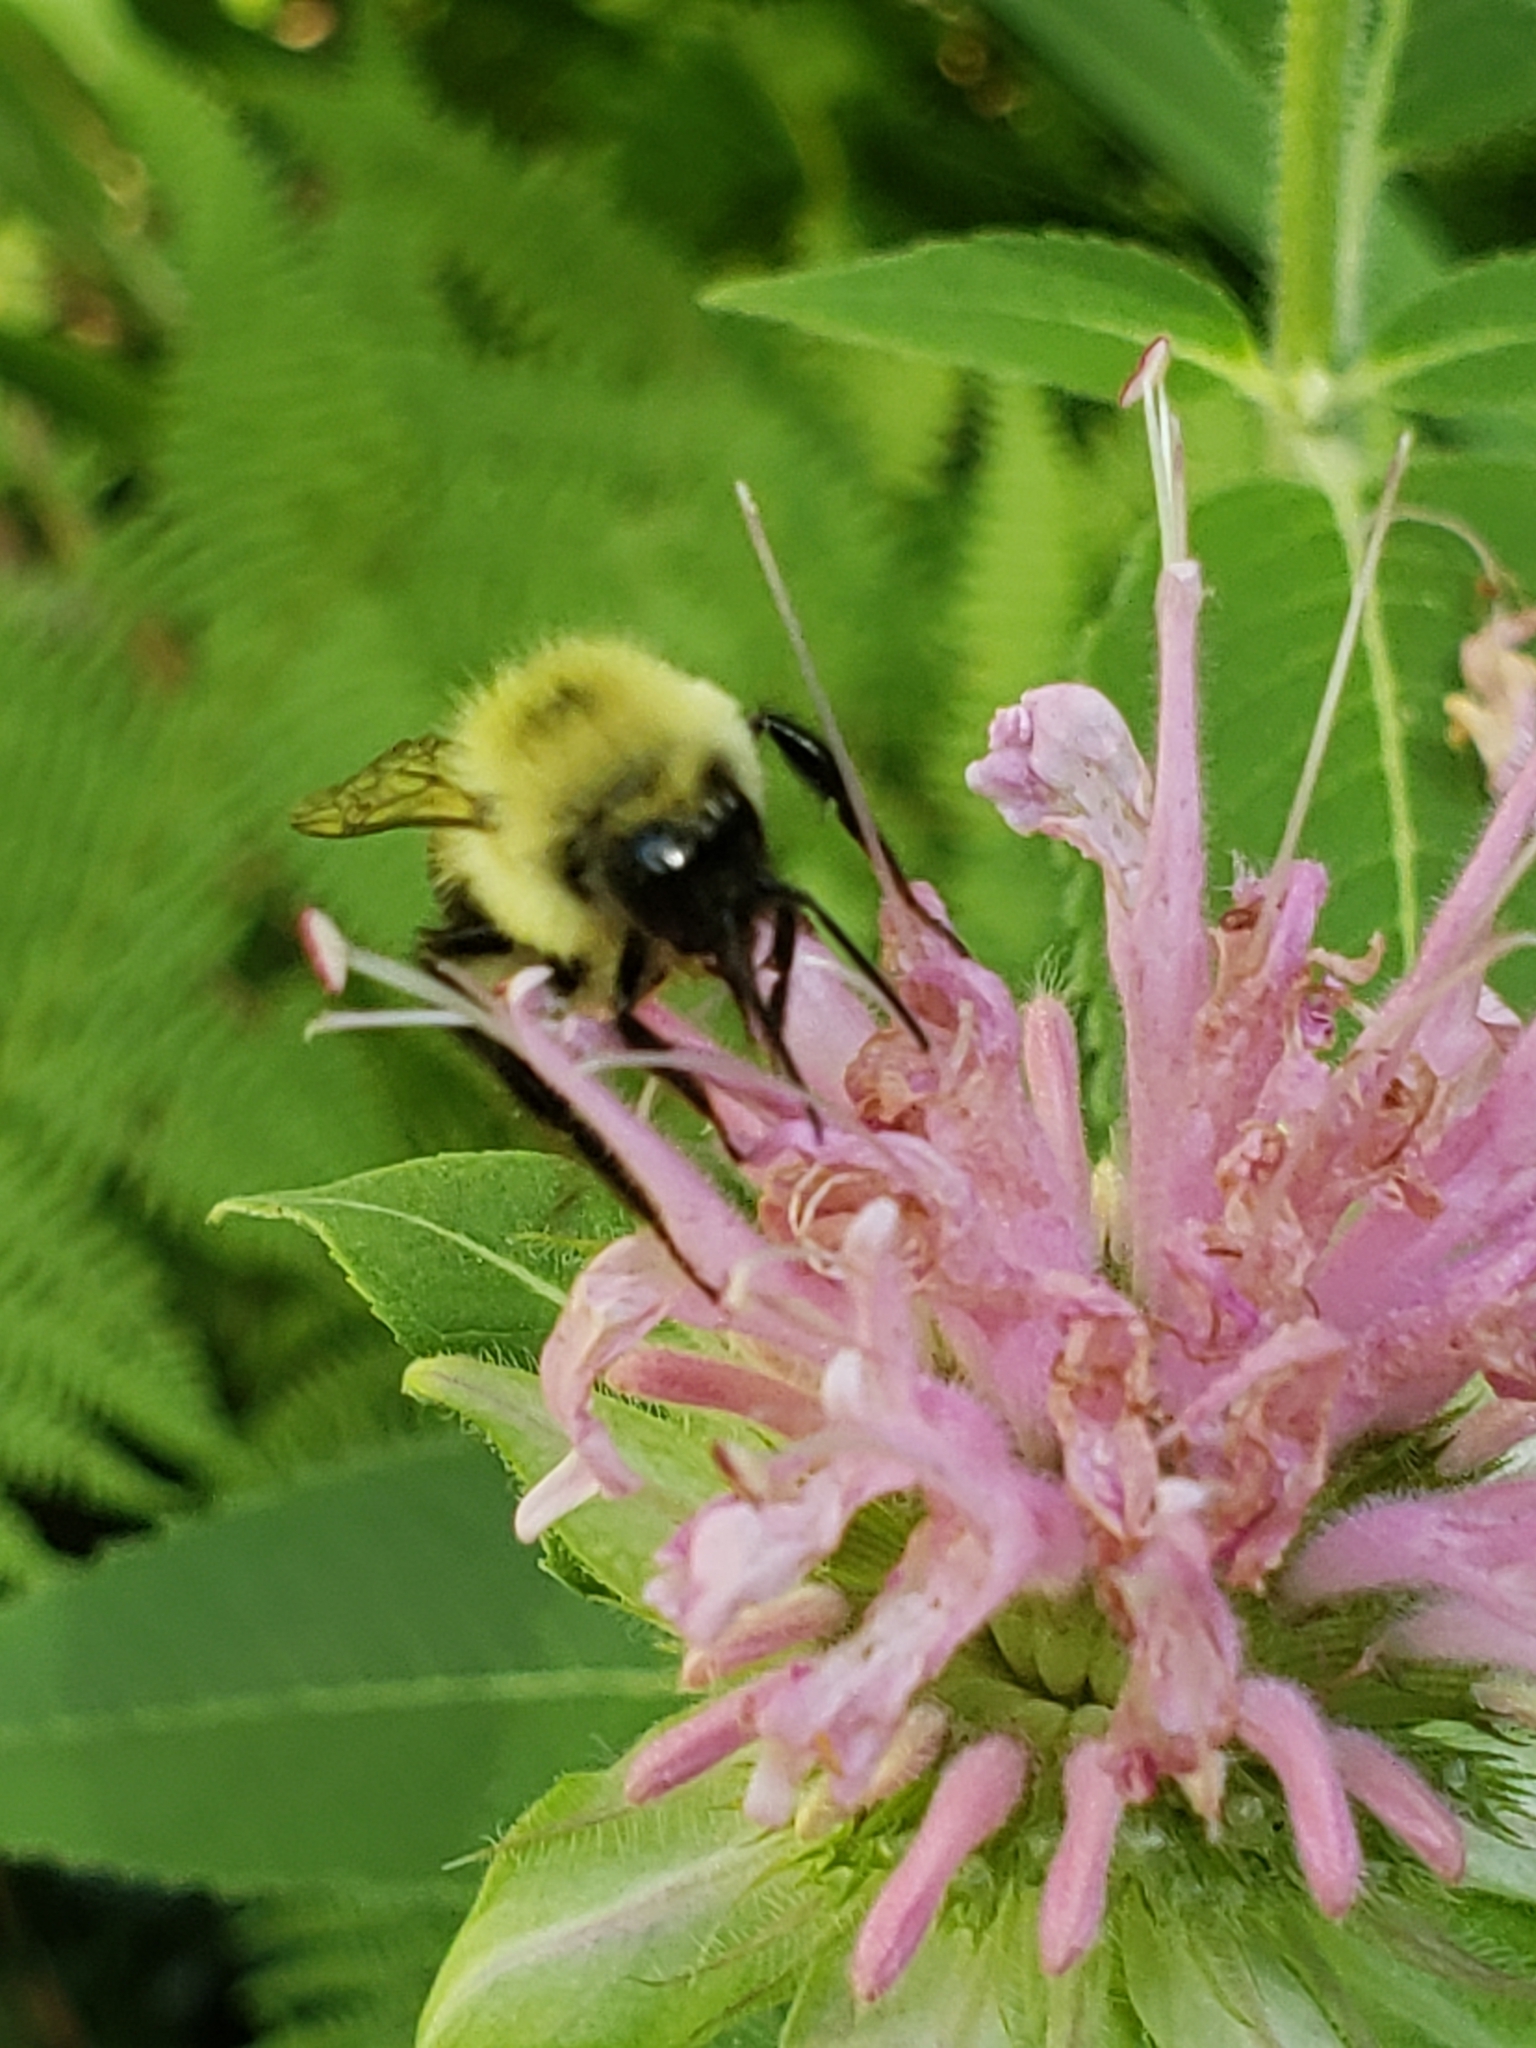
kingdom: Animalia
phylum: Arthropoda
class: Insecta
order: Hymenoptera
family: Apidae
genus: Bombus
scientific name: Bombus bimaculatus
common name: Two-spotted bumble bee
